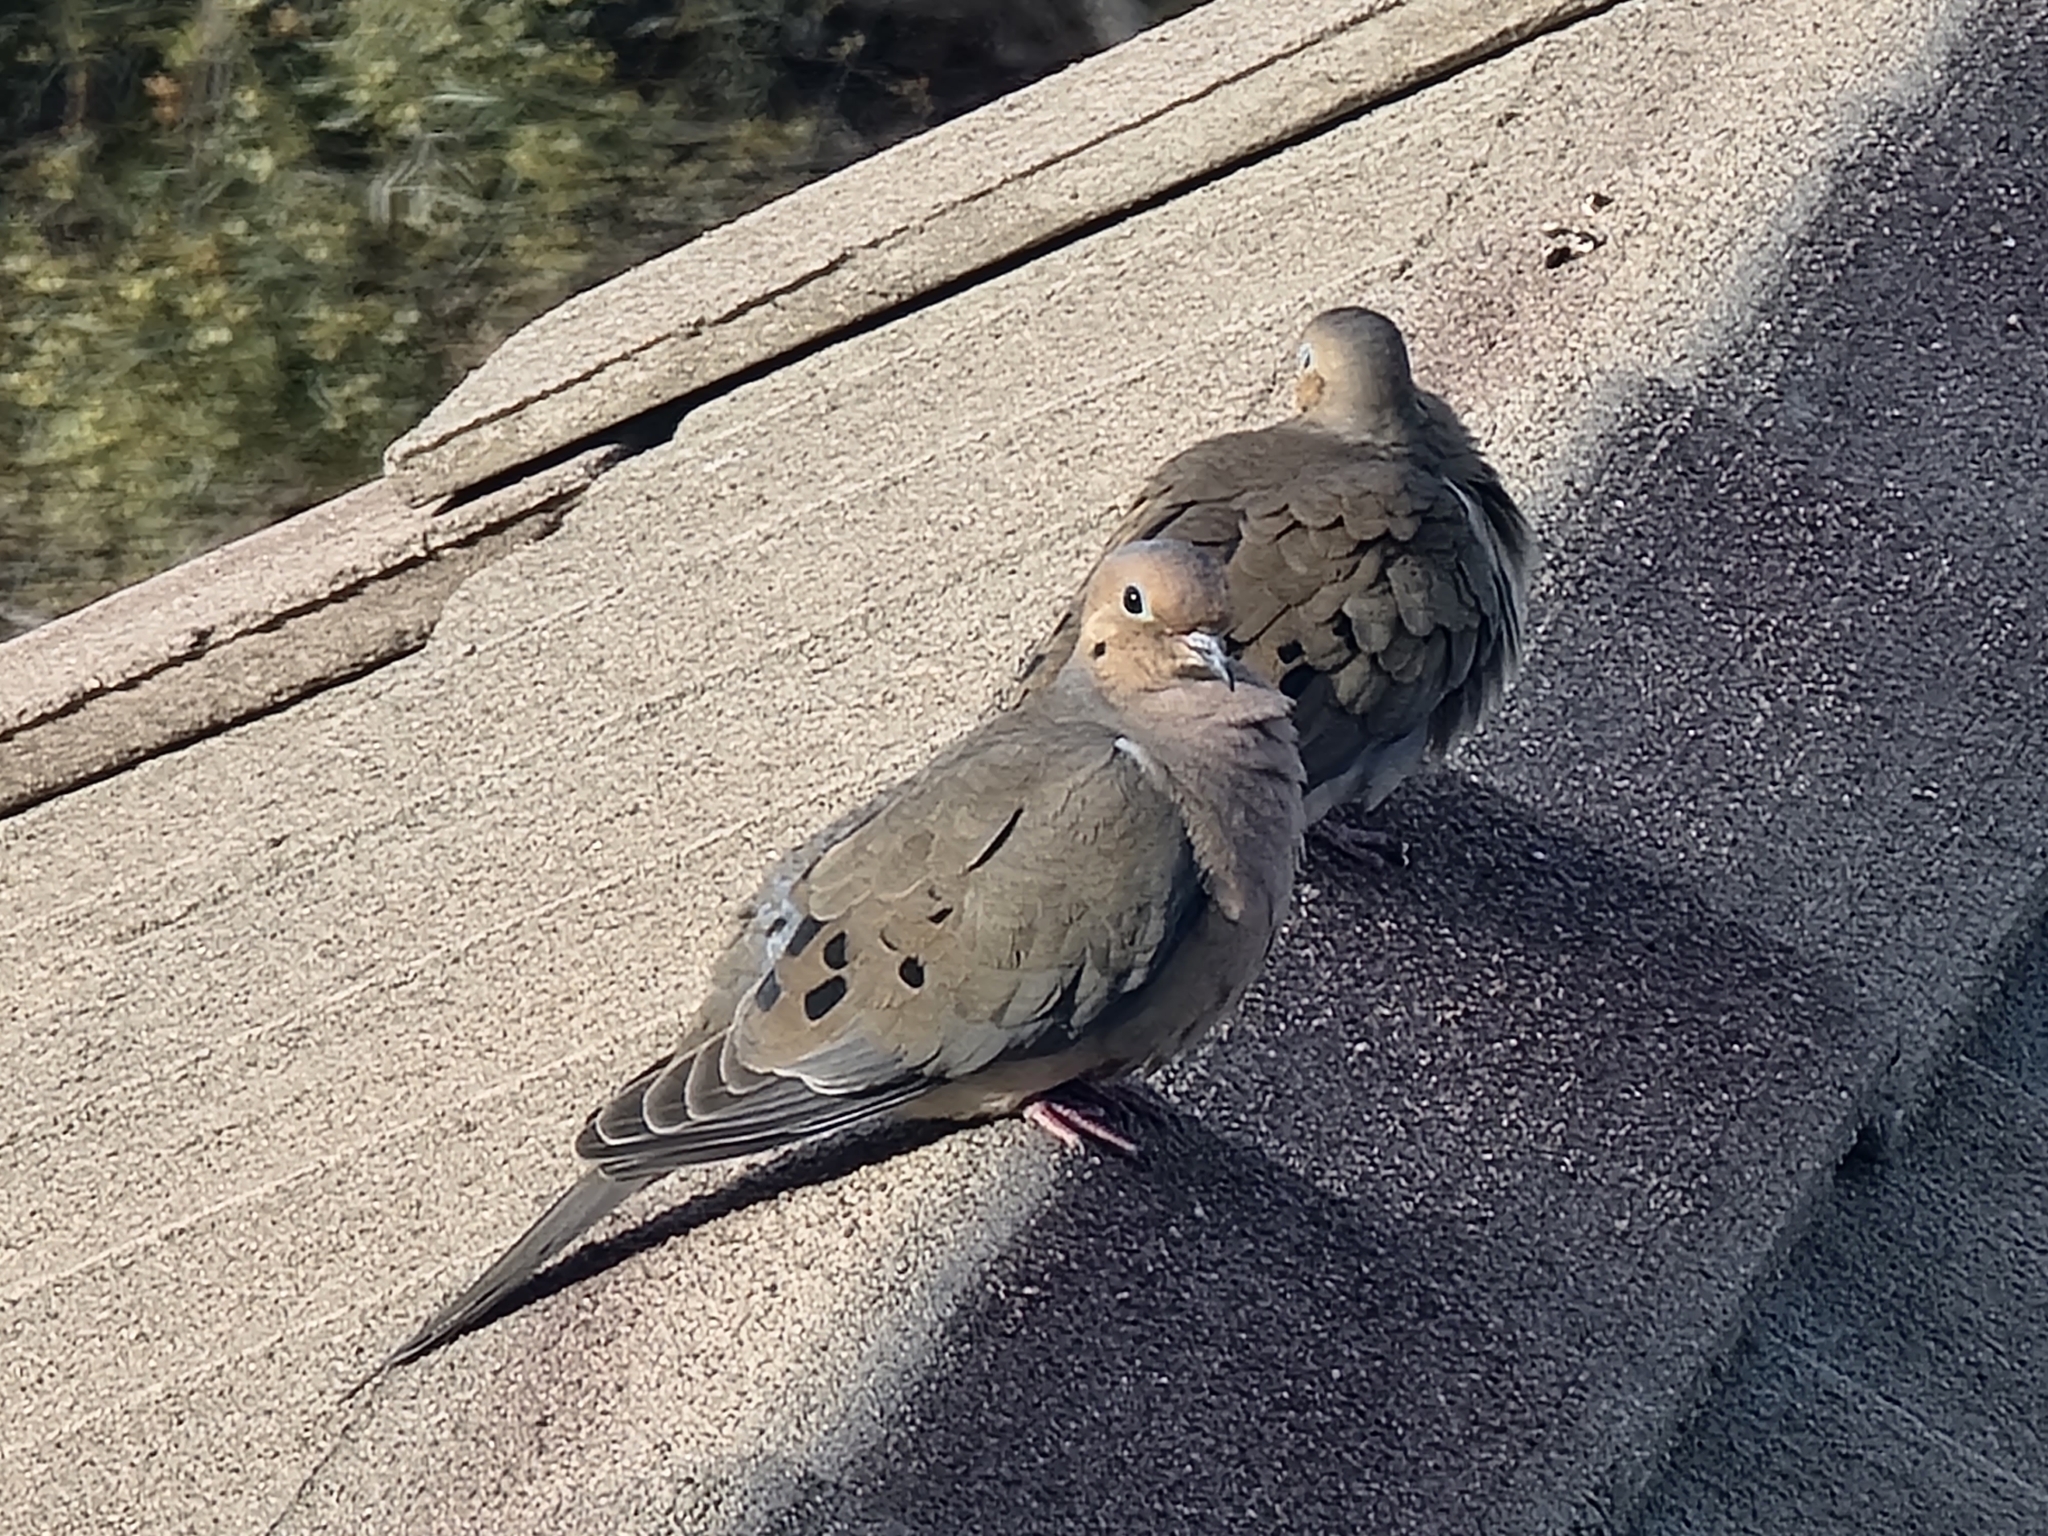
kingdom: Animalia
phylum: Chordata
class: Aves
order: Columbiformes
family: Columbidae
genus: Zenaida
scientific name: Zenaida macroura
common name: Mourning dove
